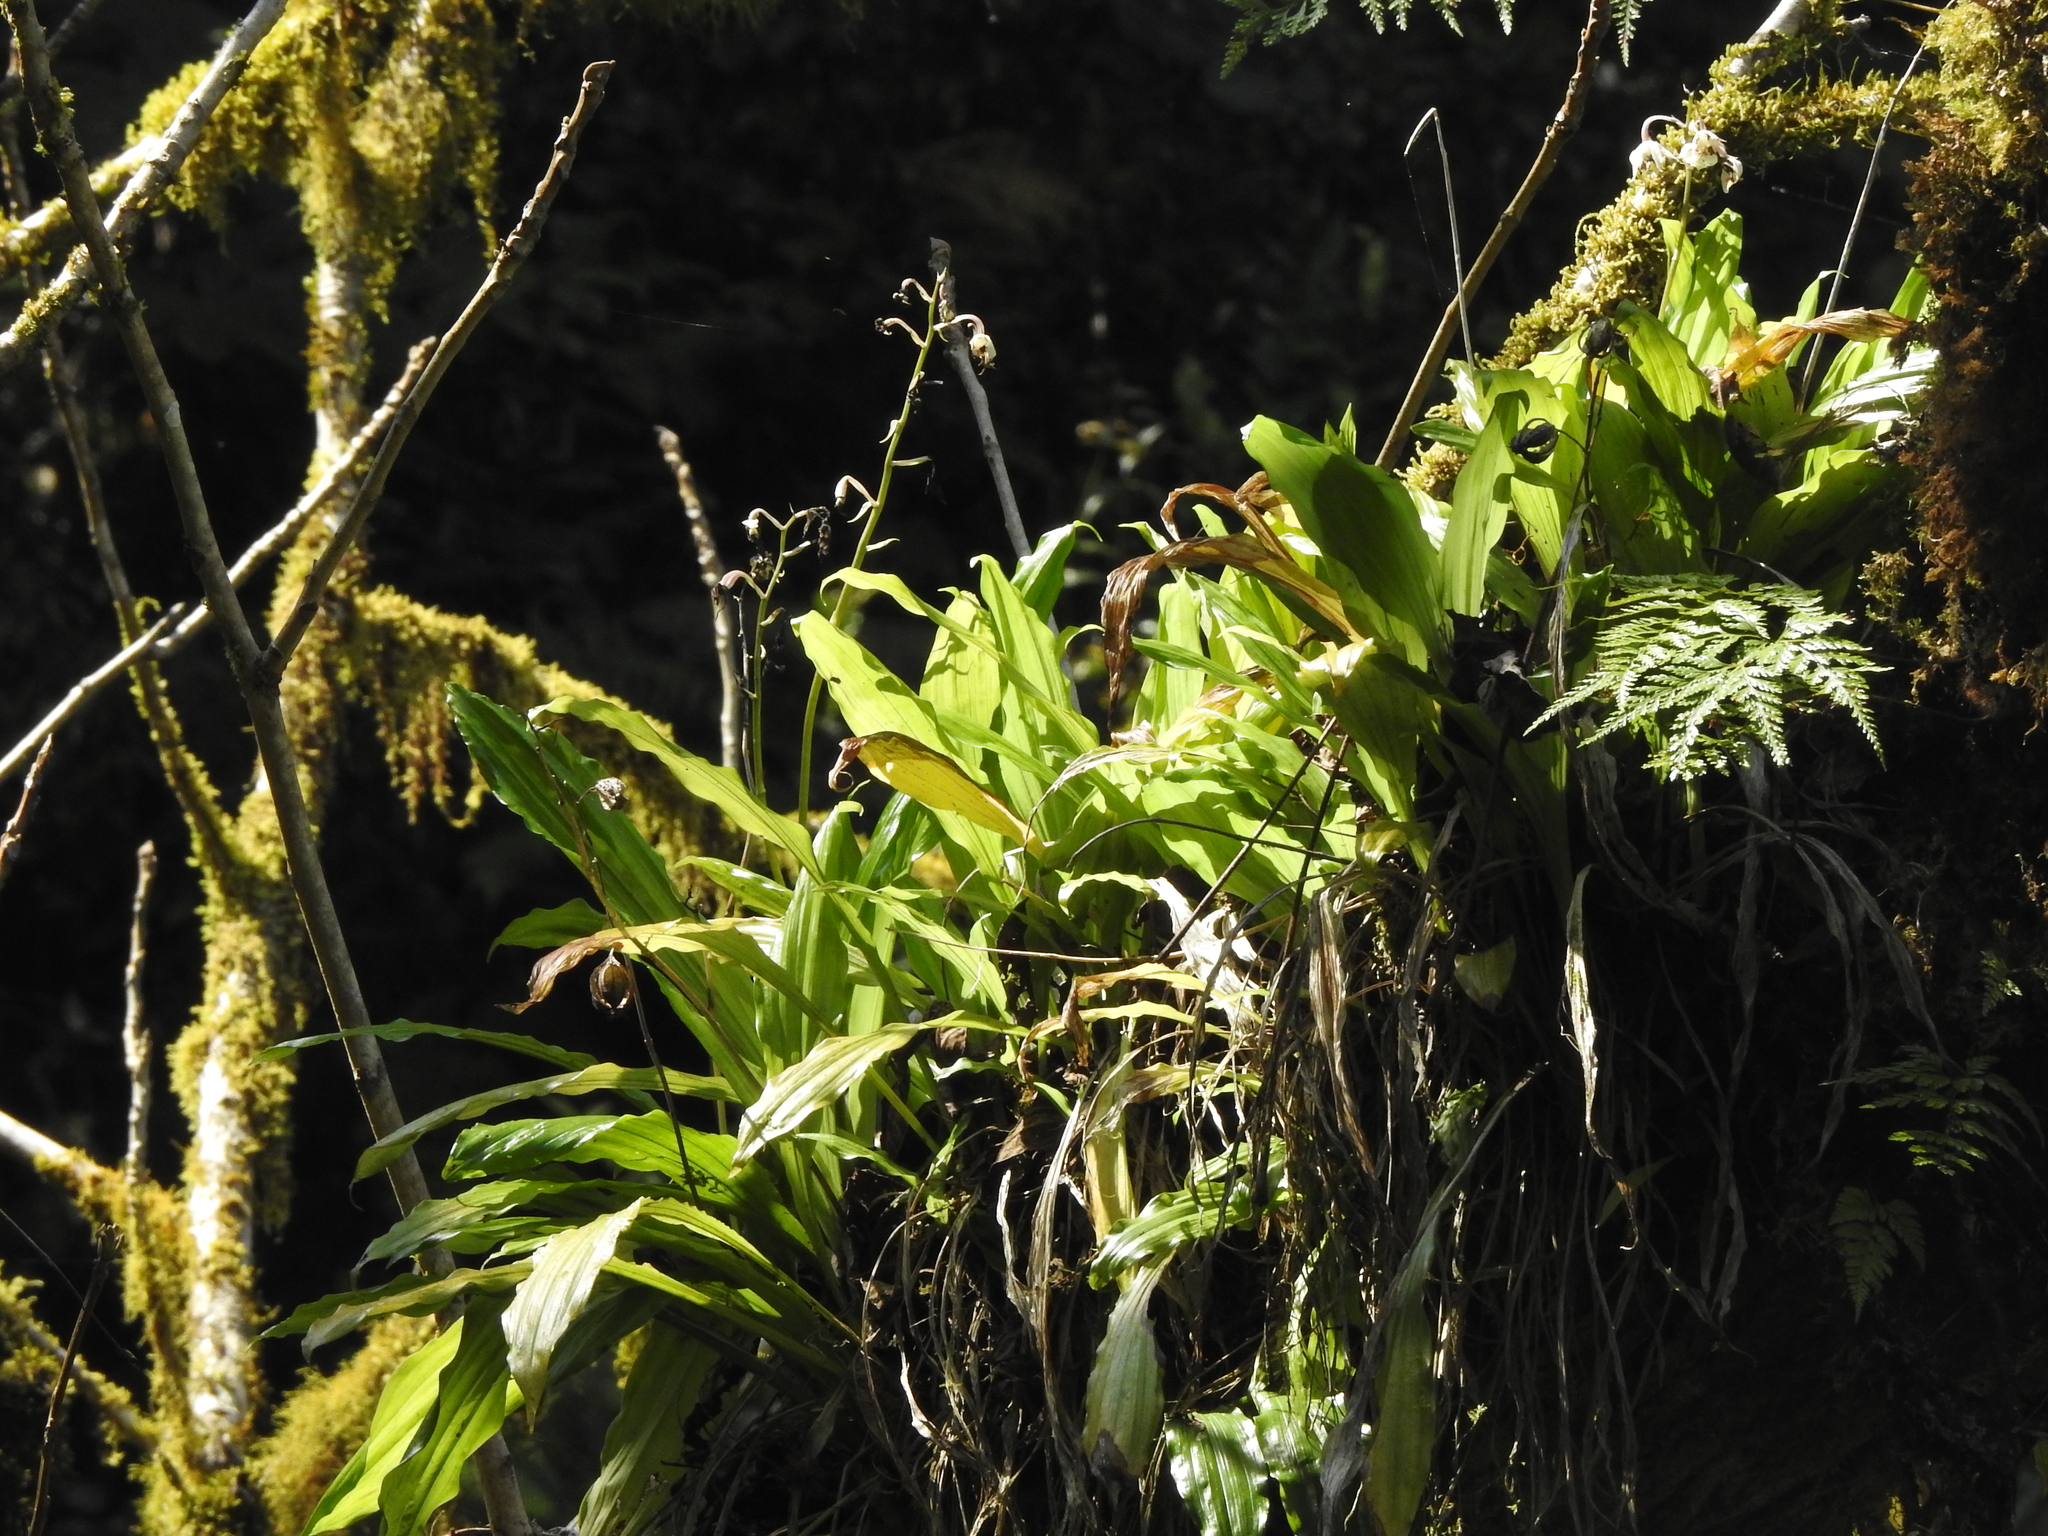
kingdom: Plantae
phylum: Tracheophyta
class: Liliopsida
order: Asparagales
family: Orchidaceae
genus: Calanthe
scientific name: Calanthe arisanensis
